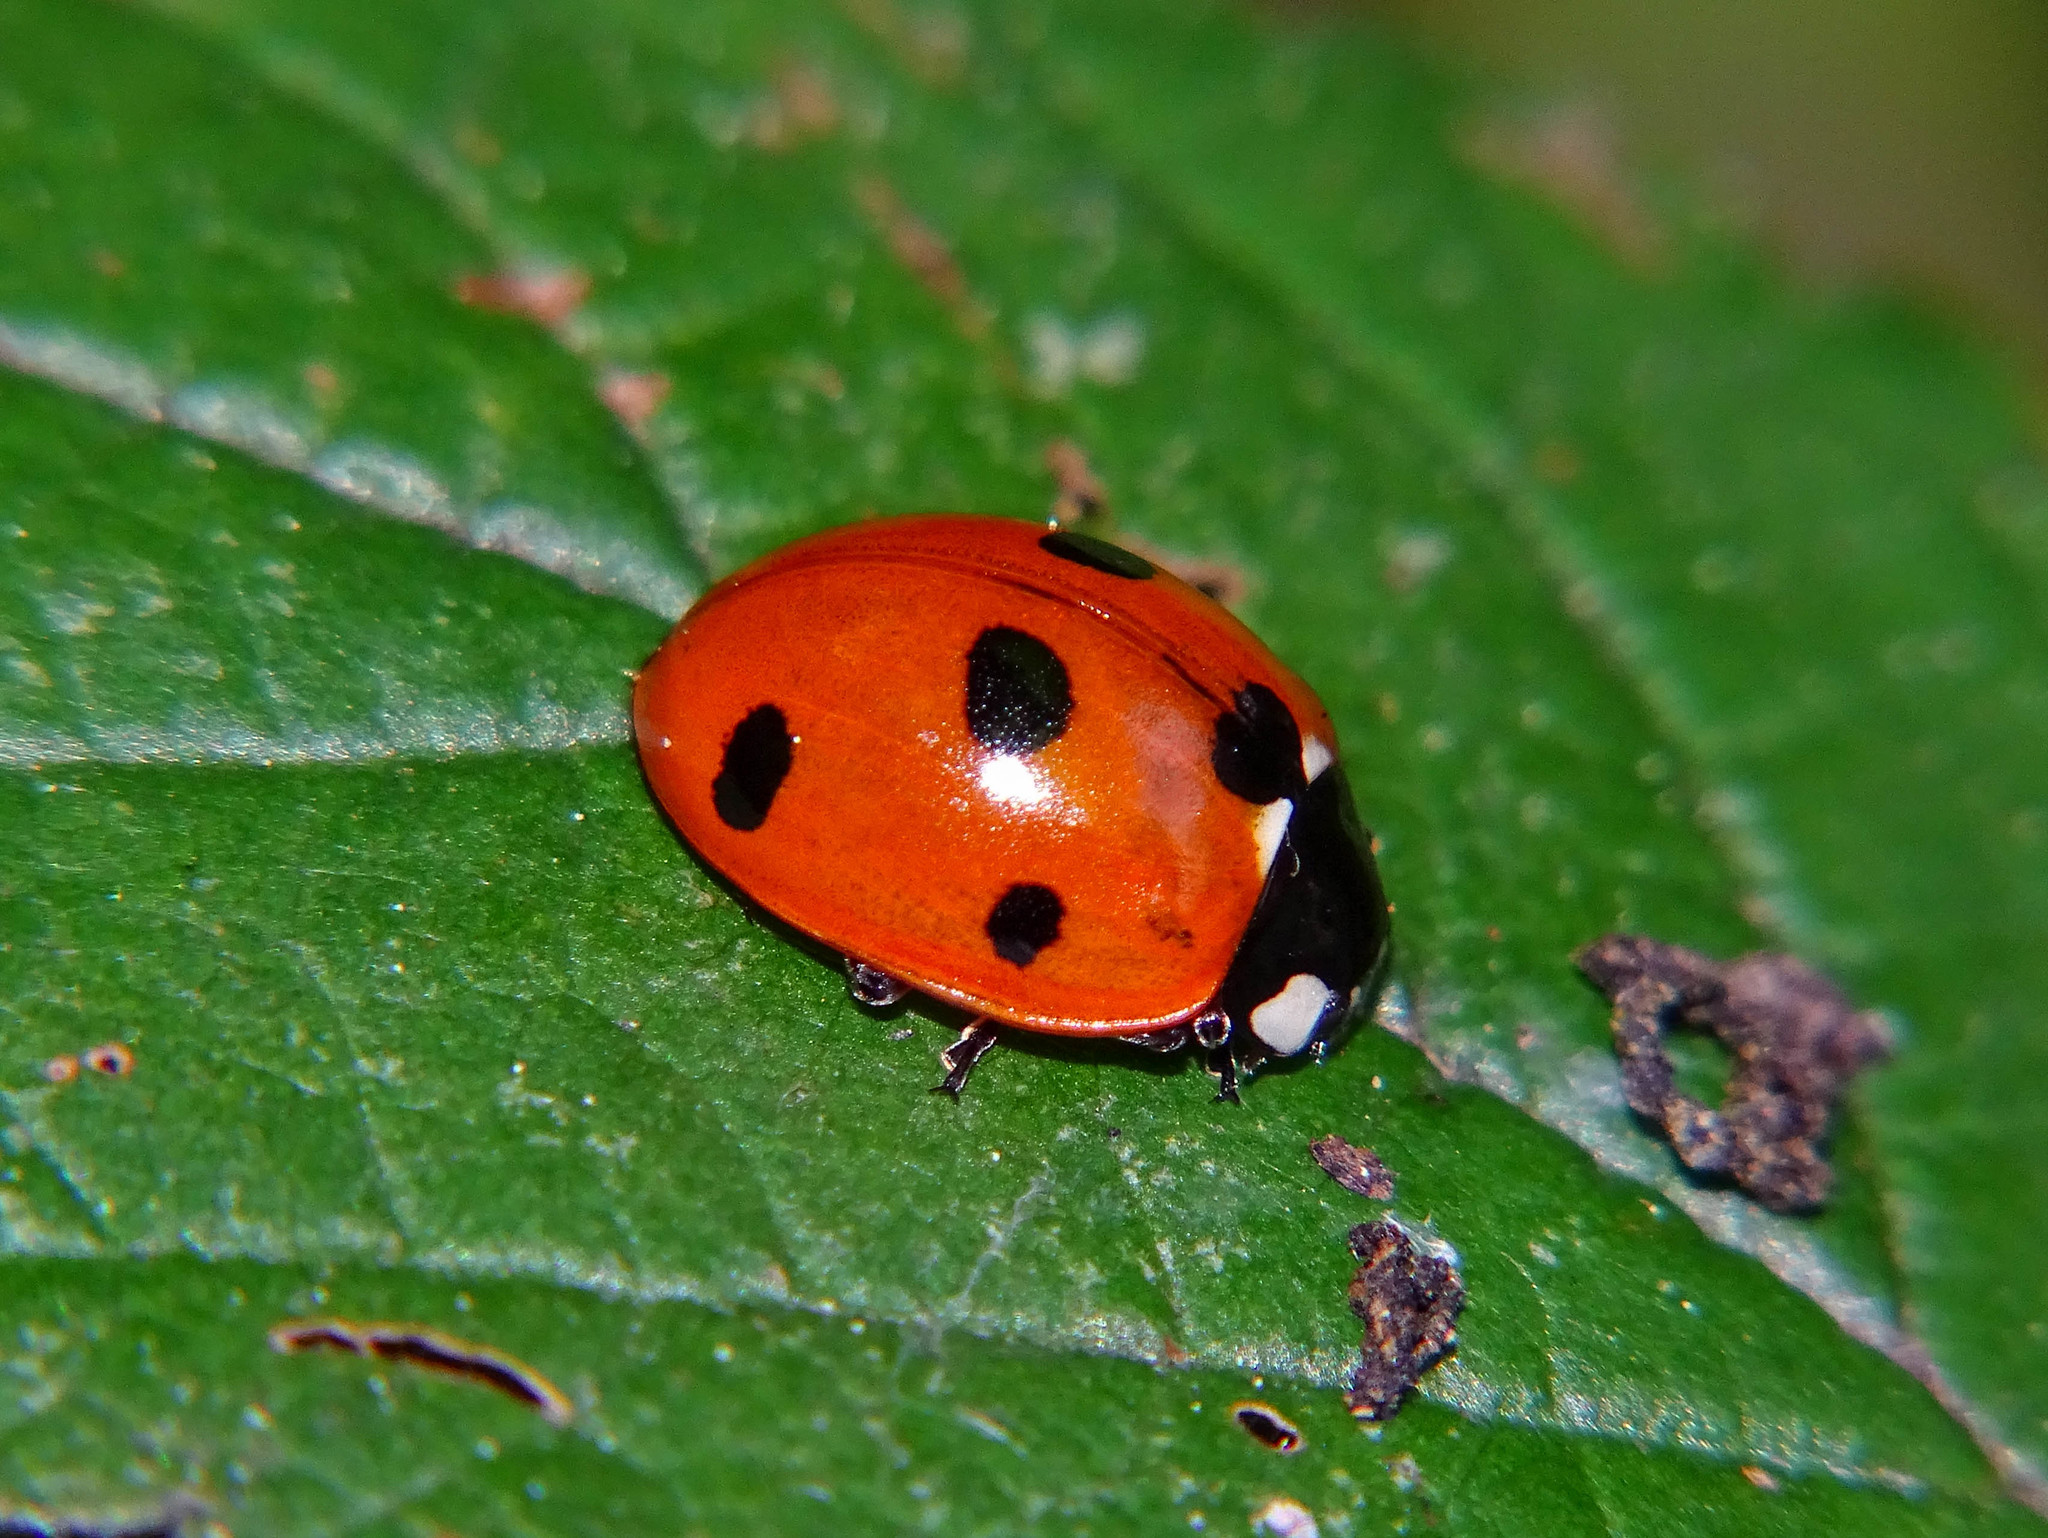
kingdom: Animalia
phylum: Arthropoda
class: Insecta
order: Coleoptera
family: Coccinellidae
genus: Coccinella
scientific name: Coccinella septempunctata
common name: Sevenspotted lady beetle
